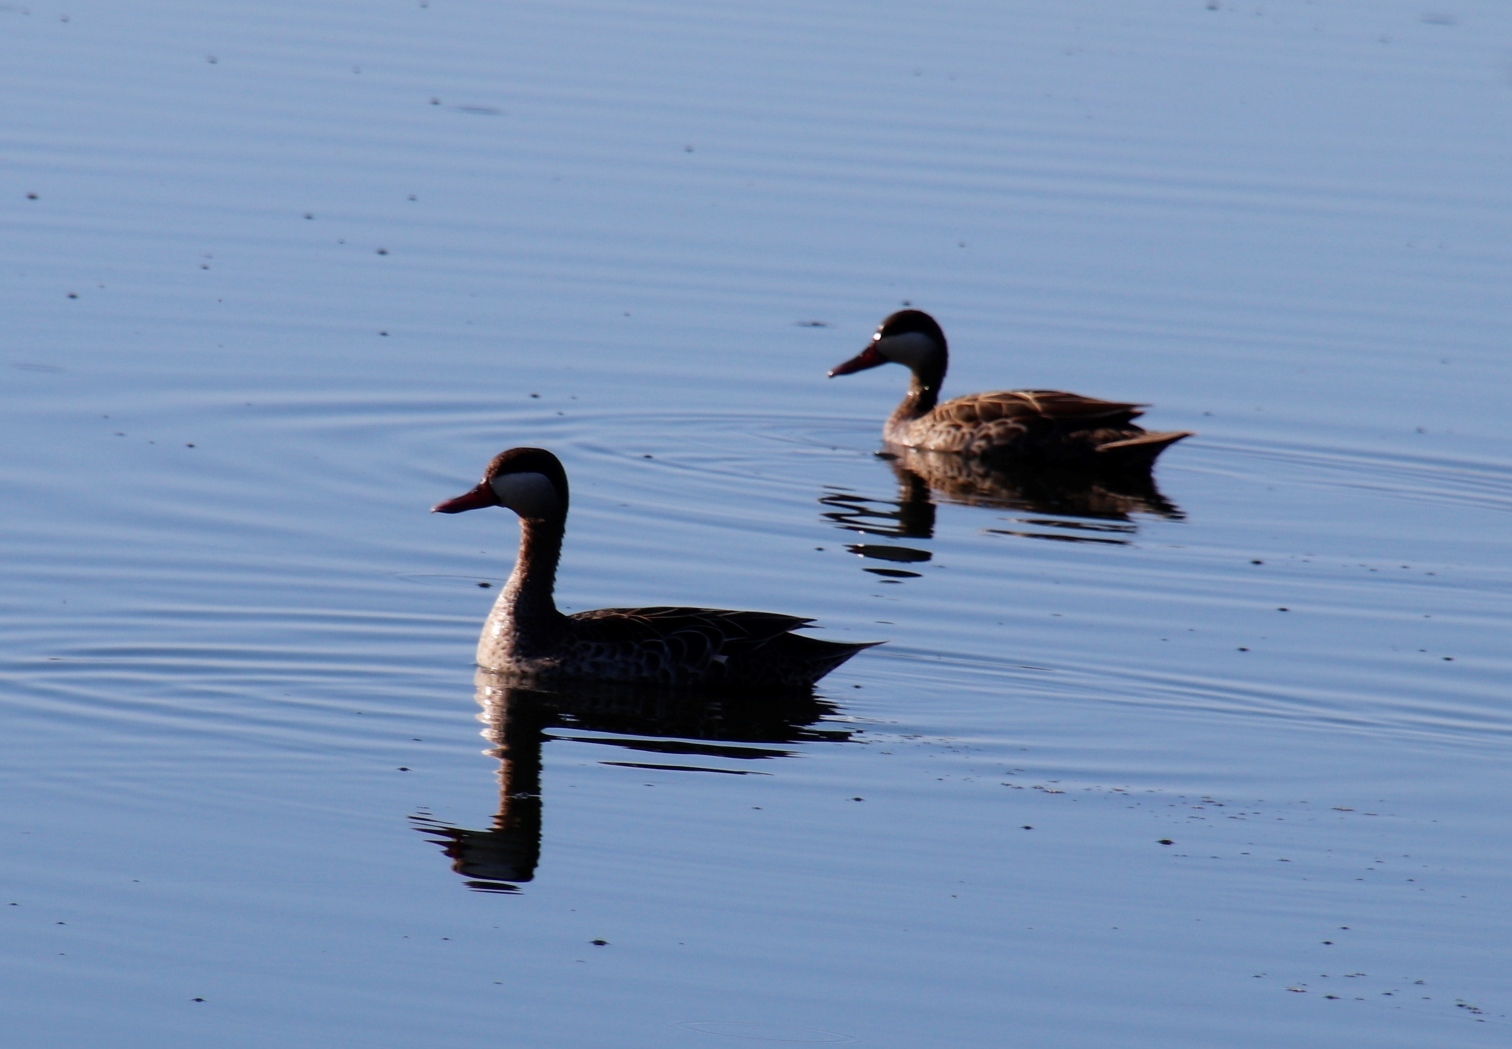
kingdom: Animalia
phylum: Chordata
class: Aves
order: Anseriformes
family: Anatidae
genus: Anas
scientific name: Anas erythrorhyncha
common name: Red-billed teal
